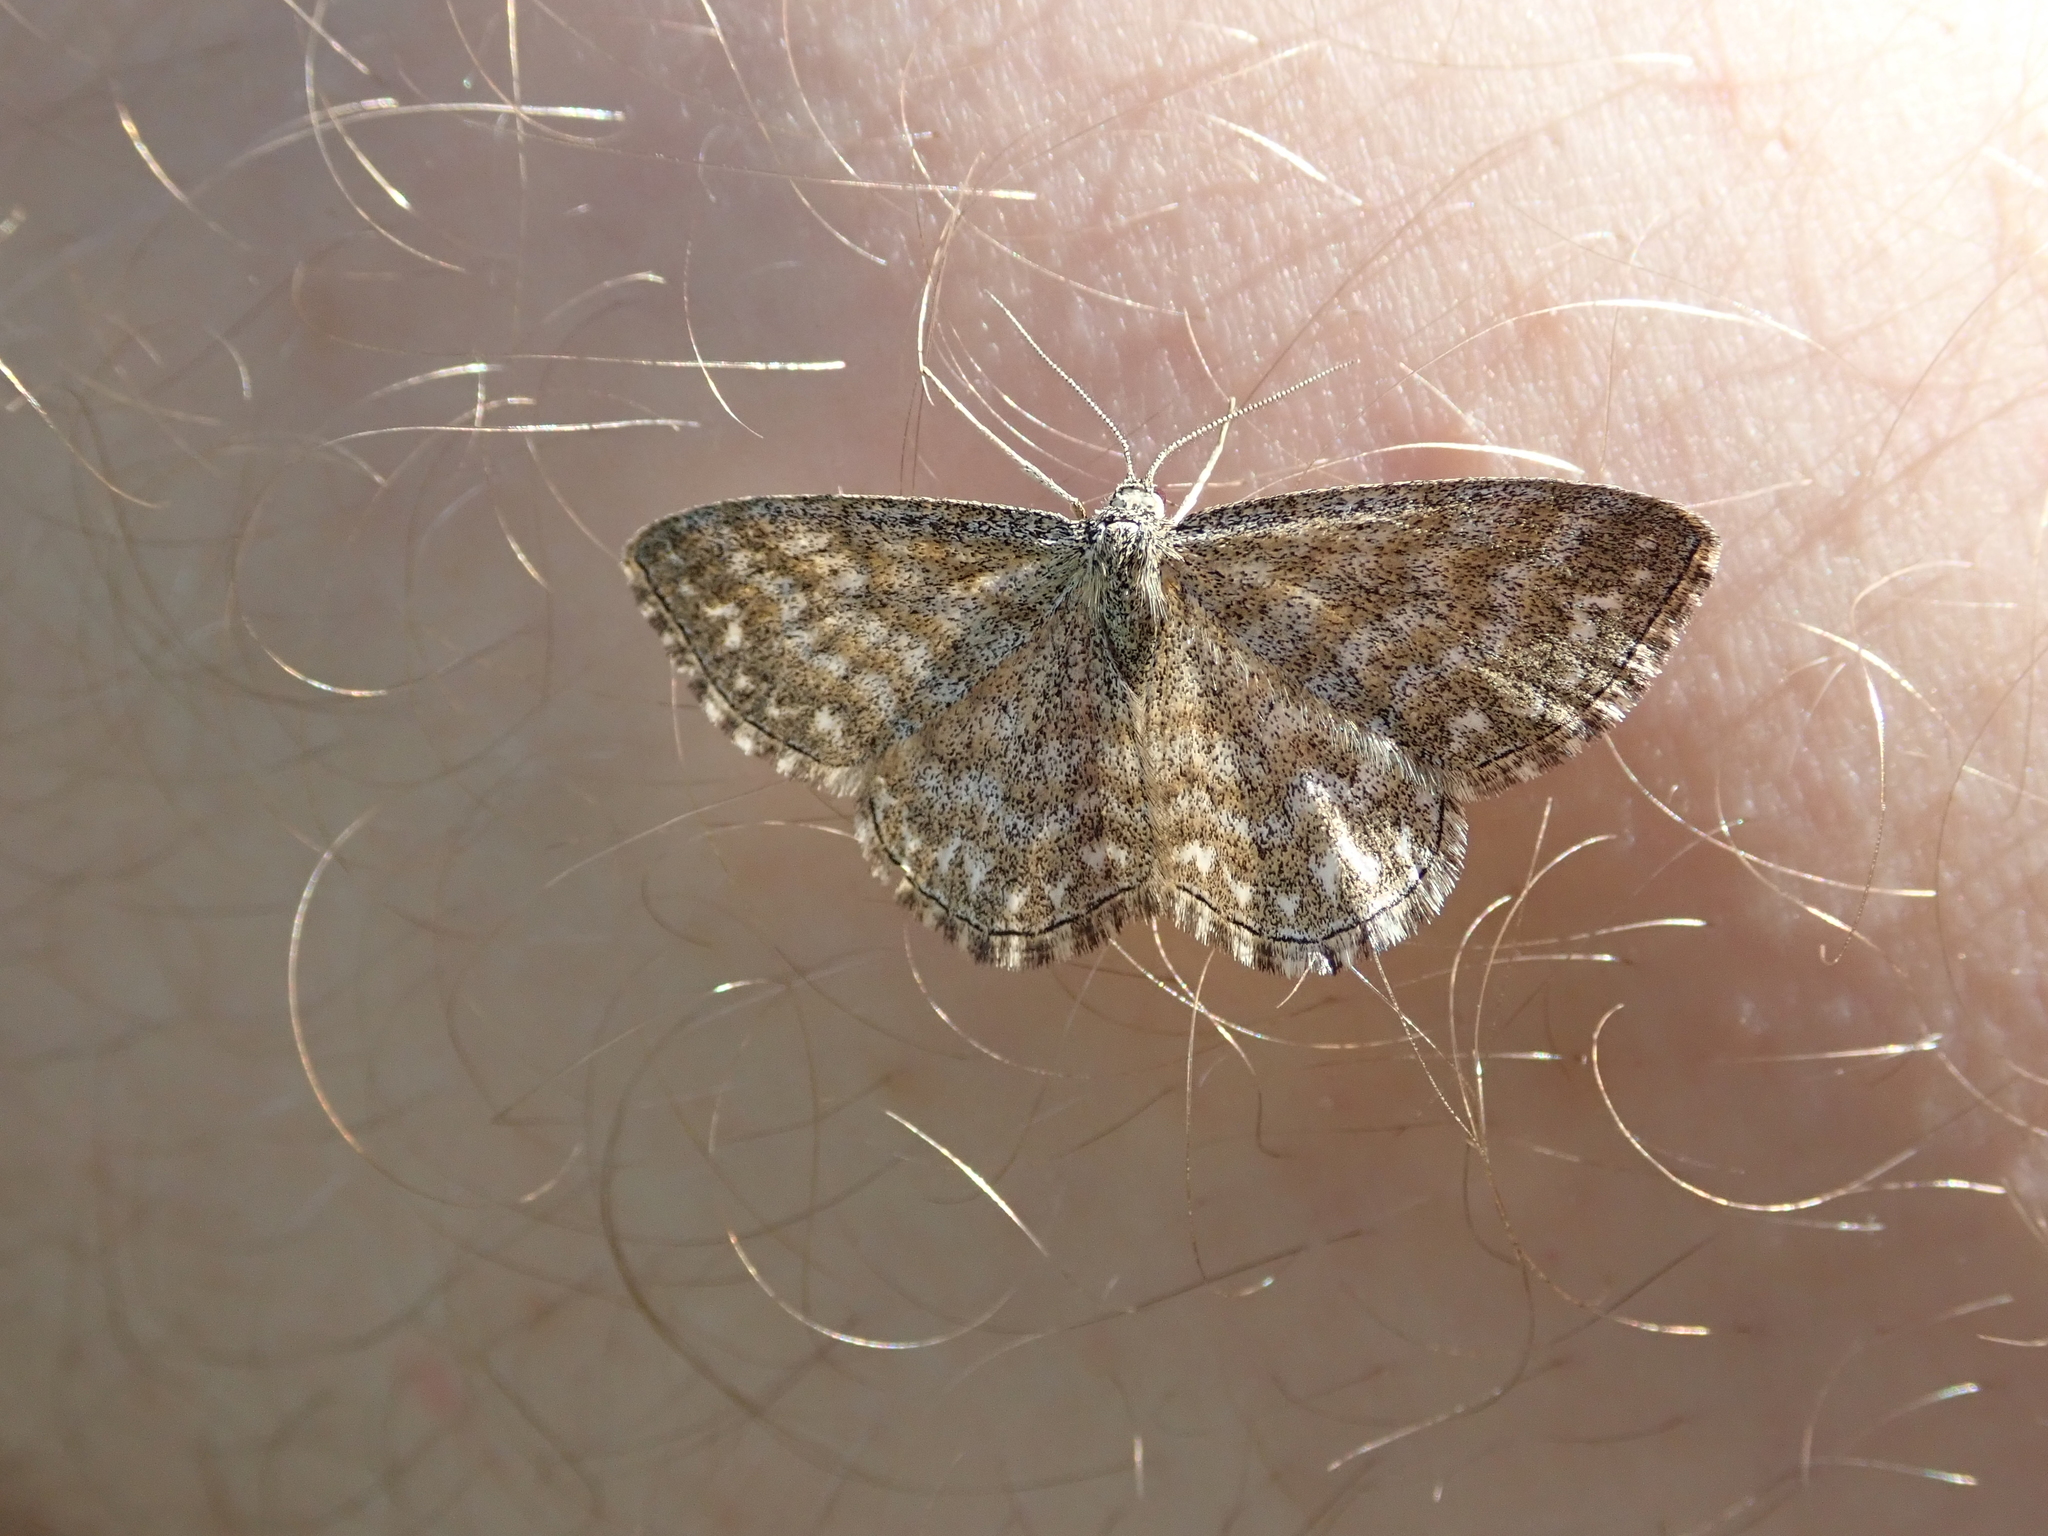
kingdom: Animalia
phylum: Arthropoda
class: Insecta
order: Lepidoptera
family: Geometridae
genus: Scopula
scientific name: Scopula immorata
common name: Lewes wave
